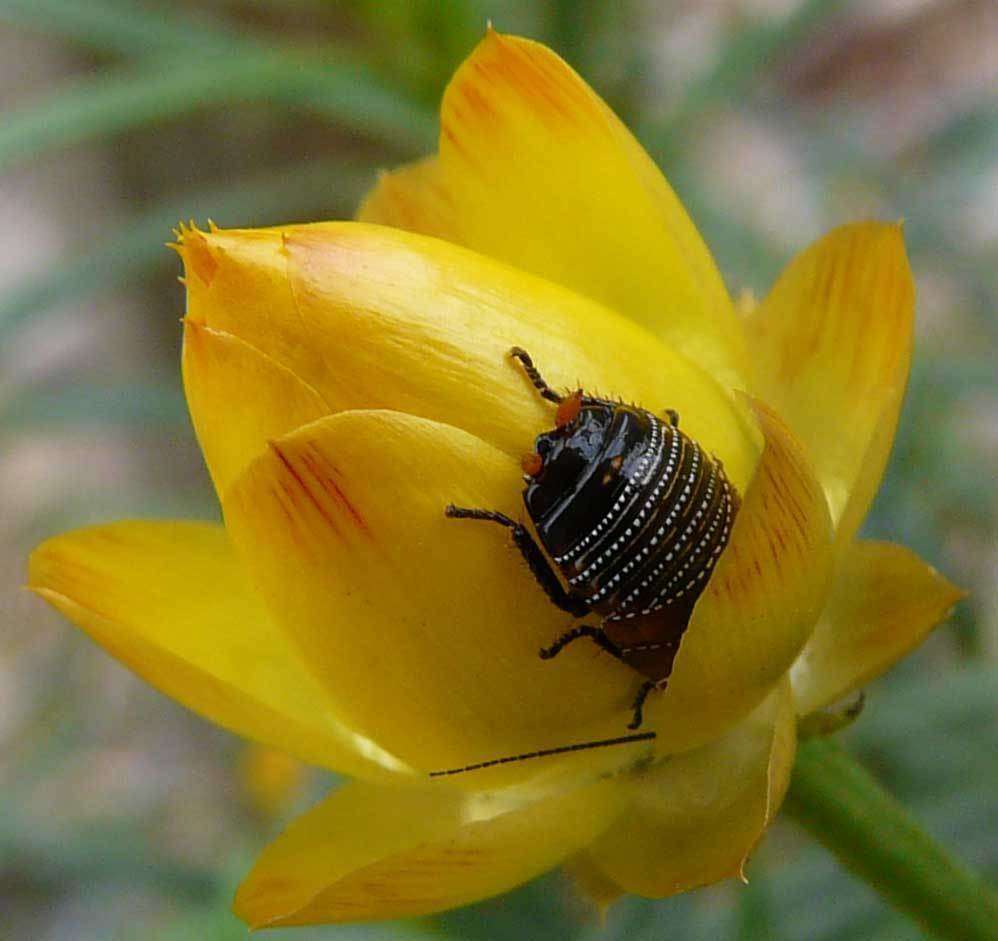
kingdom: Animalia
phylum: Arthropoda
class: Insecta
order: Blattodea
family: Ectobiidae
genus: Ellipsidion
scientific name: Ellipsidion australe
